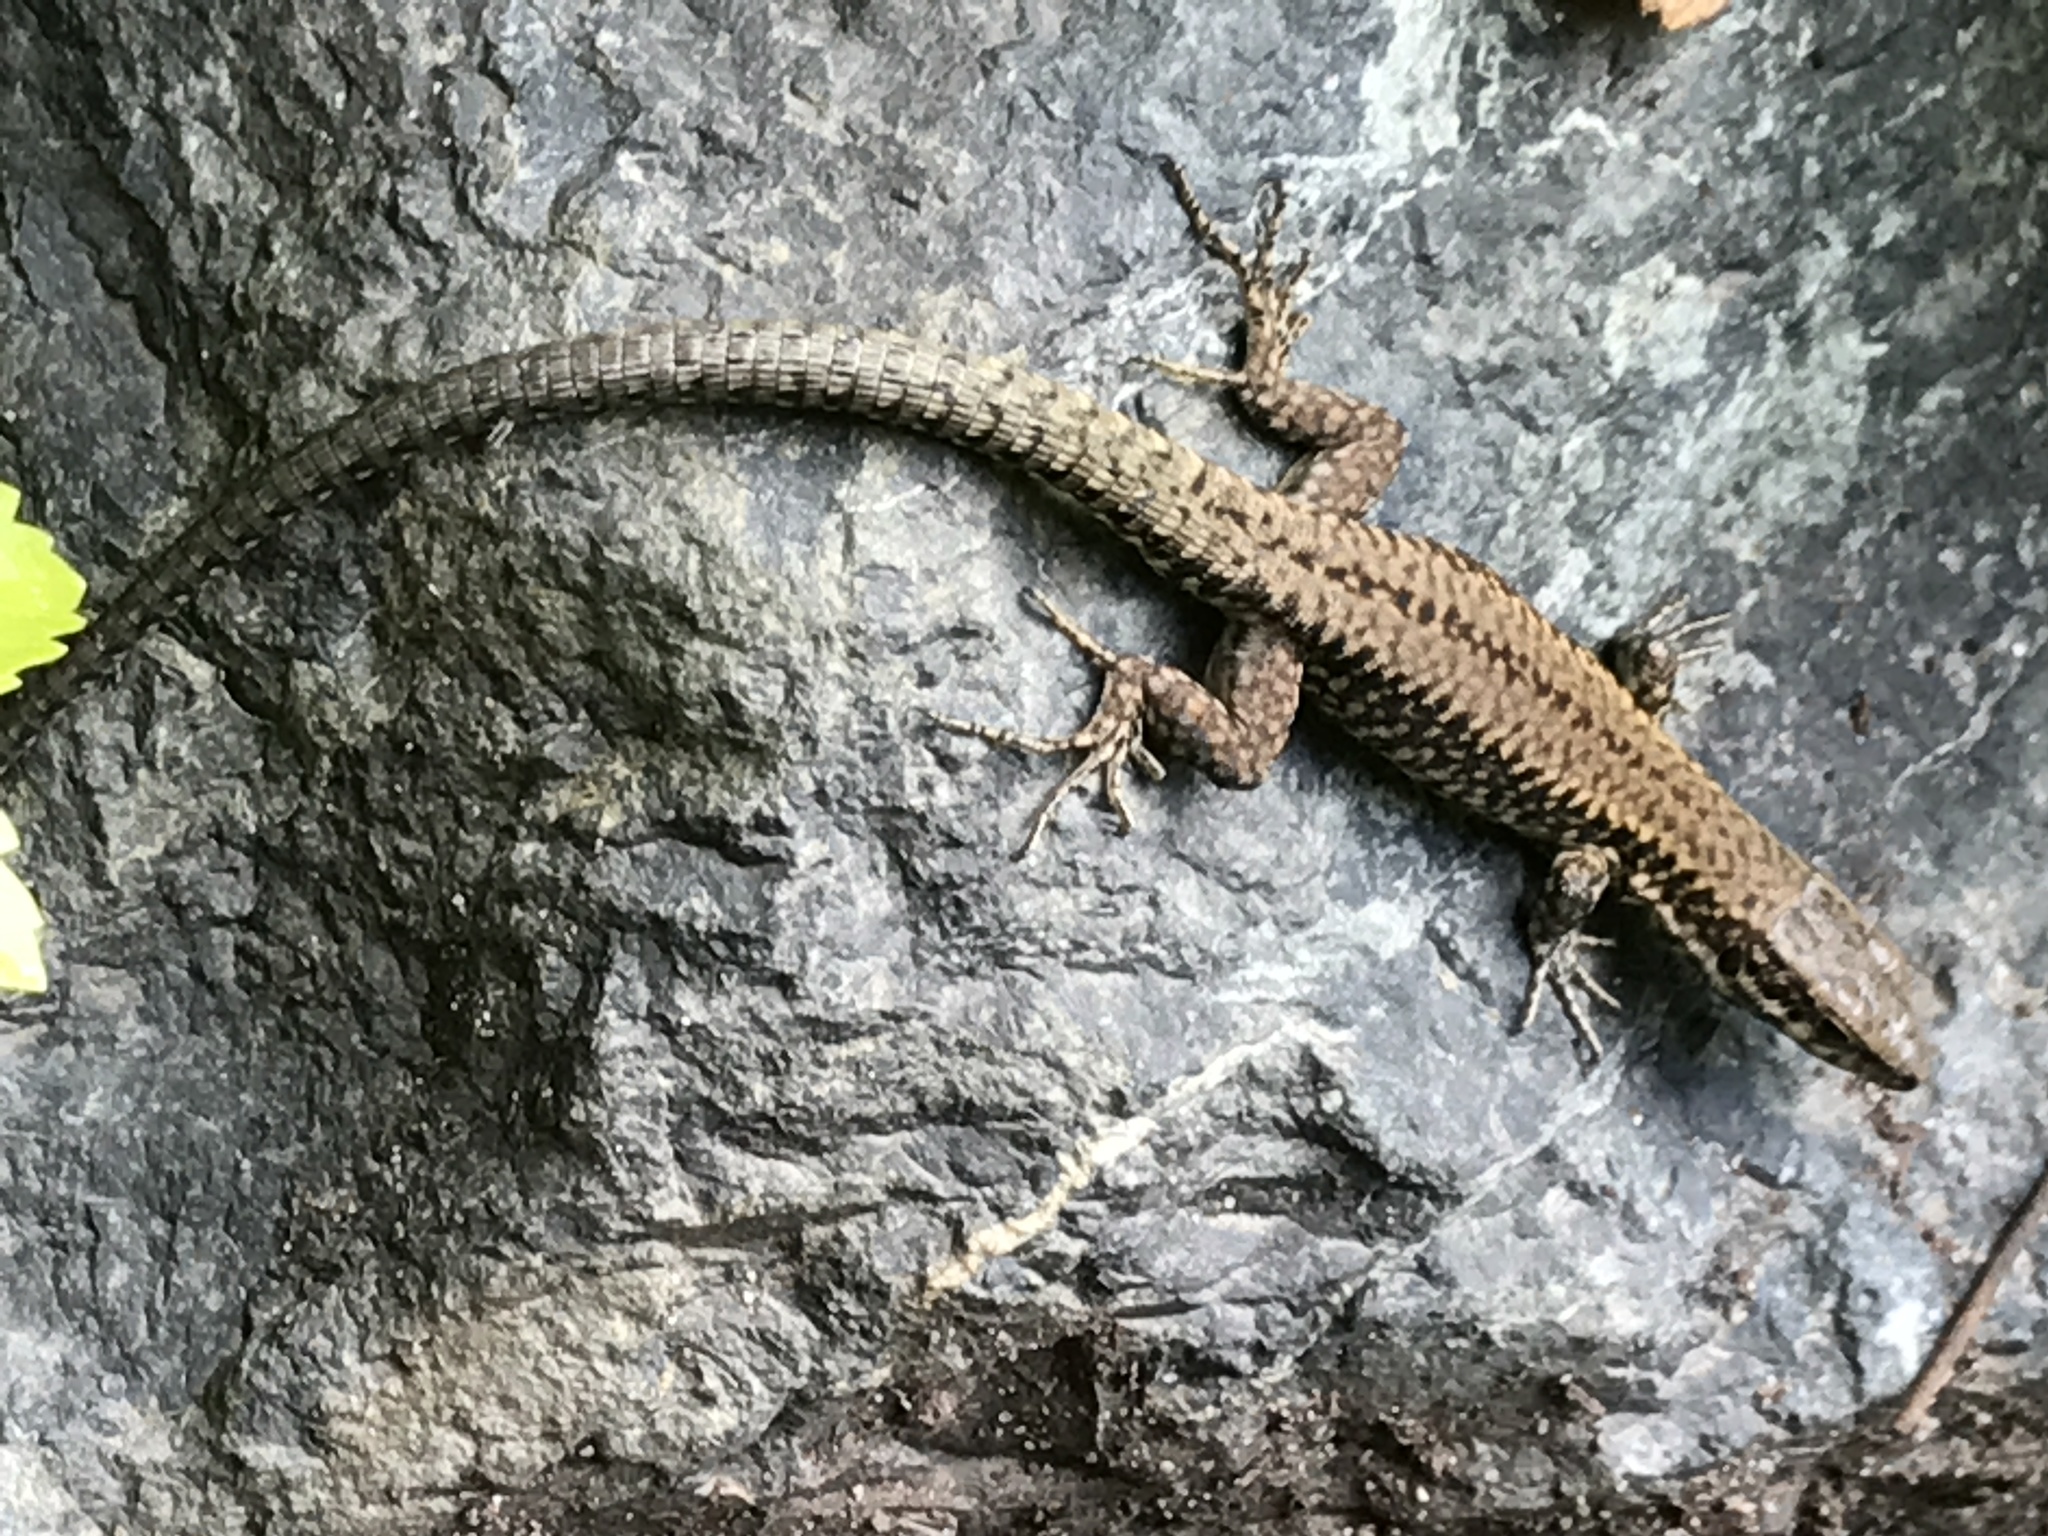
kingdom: Animalia
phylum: Chordata
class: Squamata
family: Lacertidae
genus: Podarcis
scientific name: Podarcis muralis
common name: Common wall lizard
